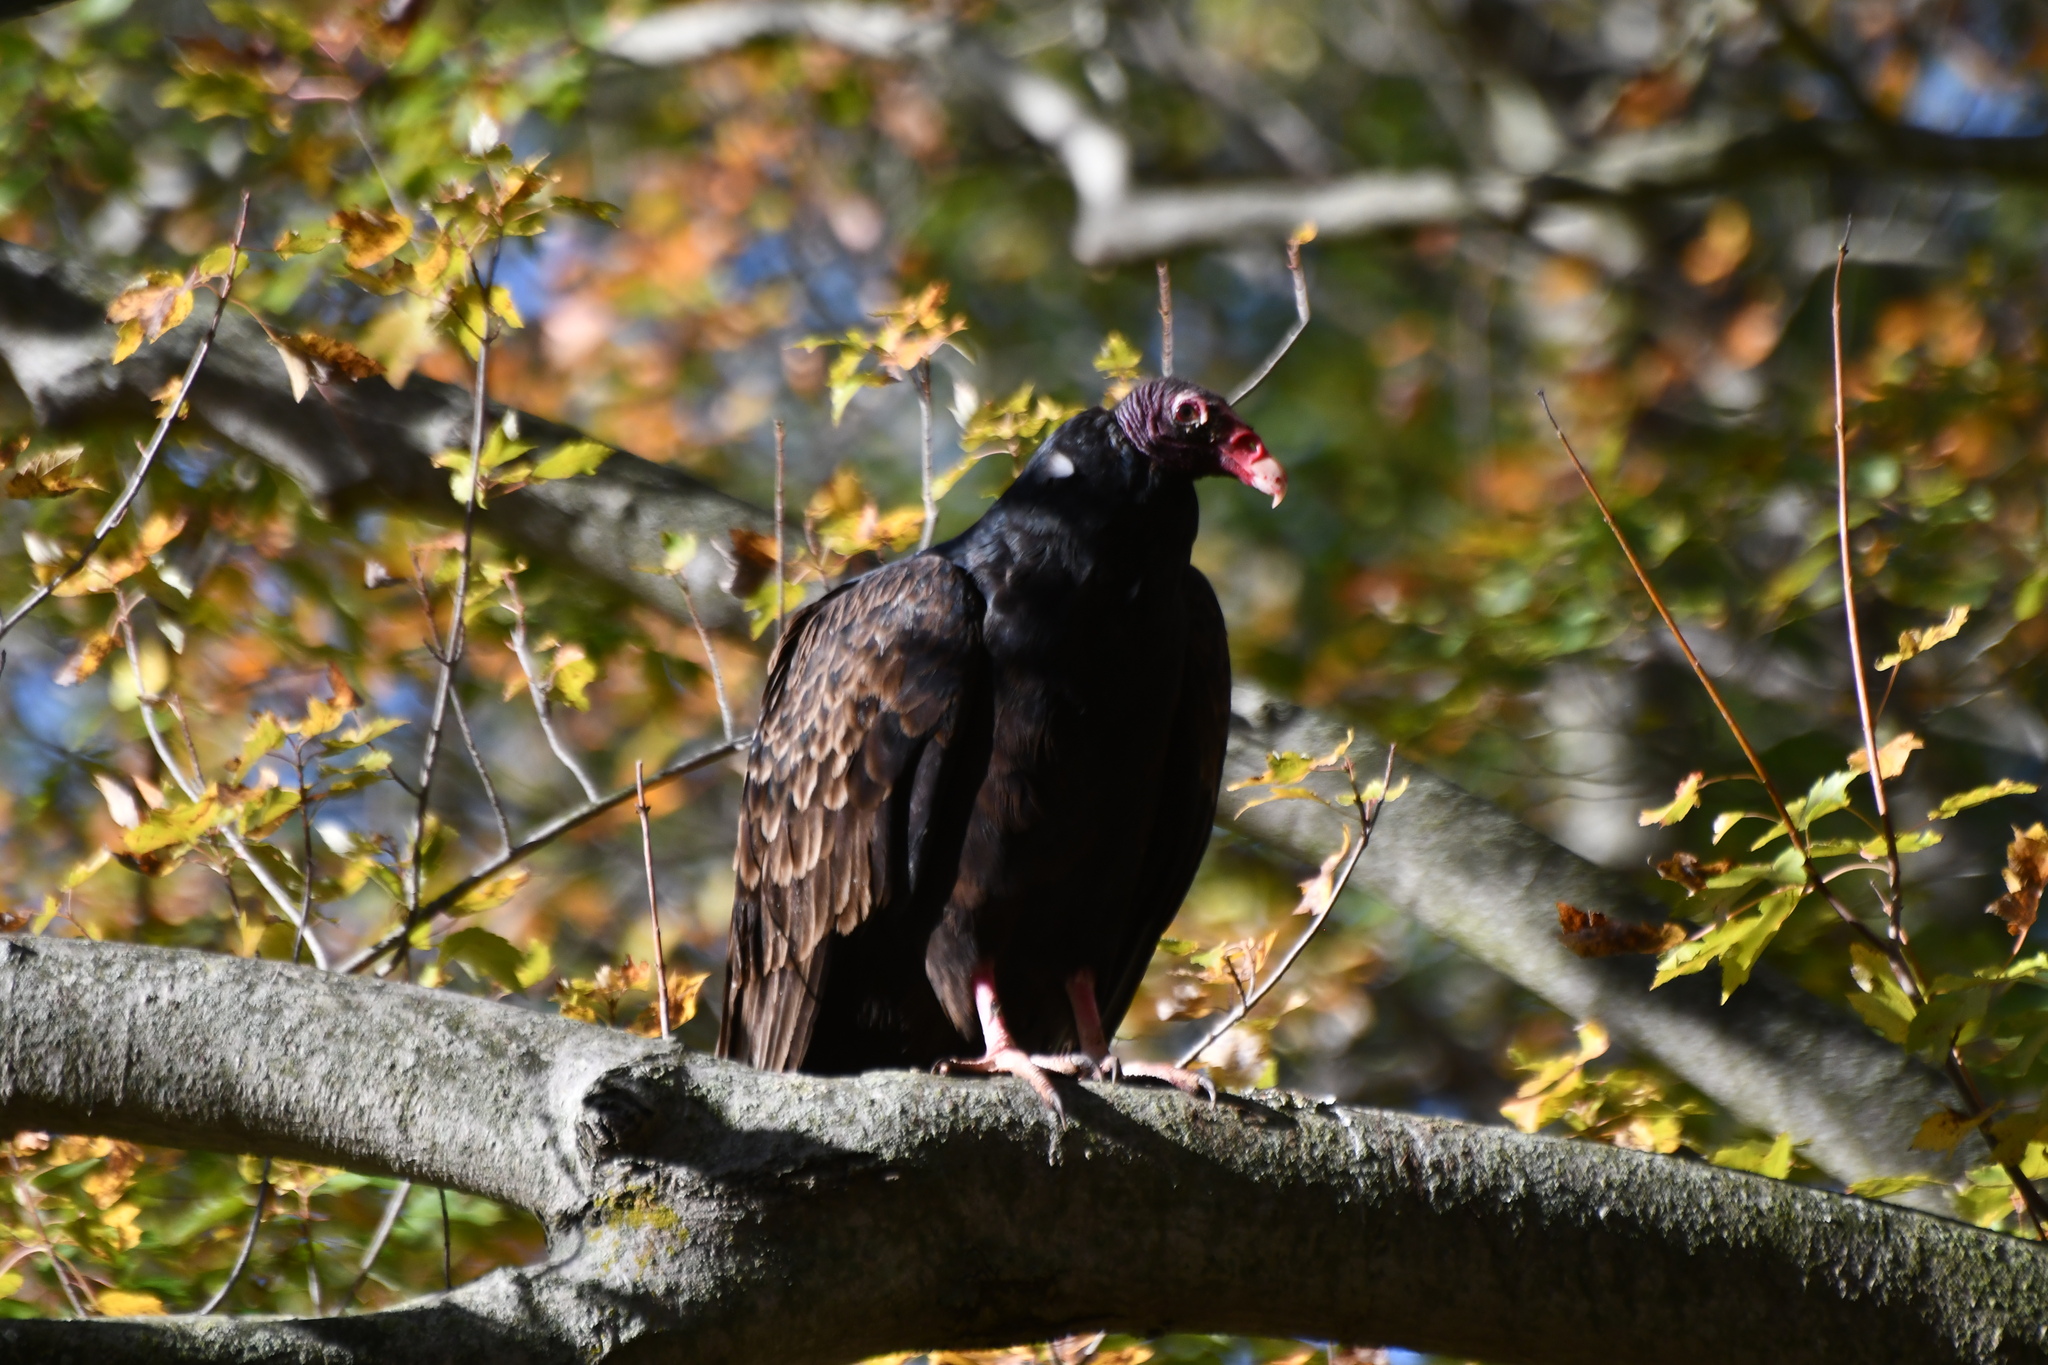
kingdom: Animalia
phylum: Chordata
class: Aves
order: Accipitriformes
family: Cathartidae
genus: Cathartes
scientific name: Cathartes aura
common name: Turkey vulture
